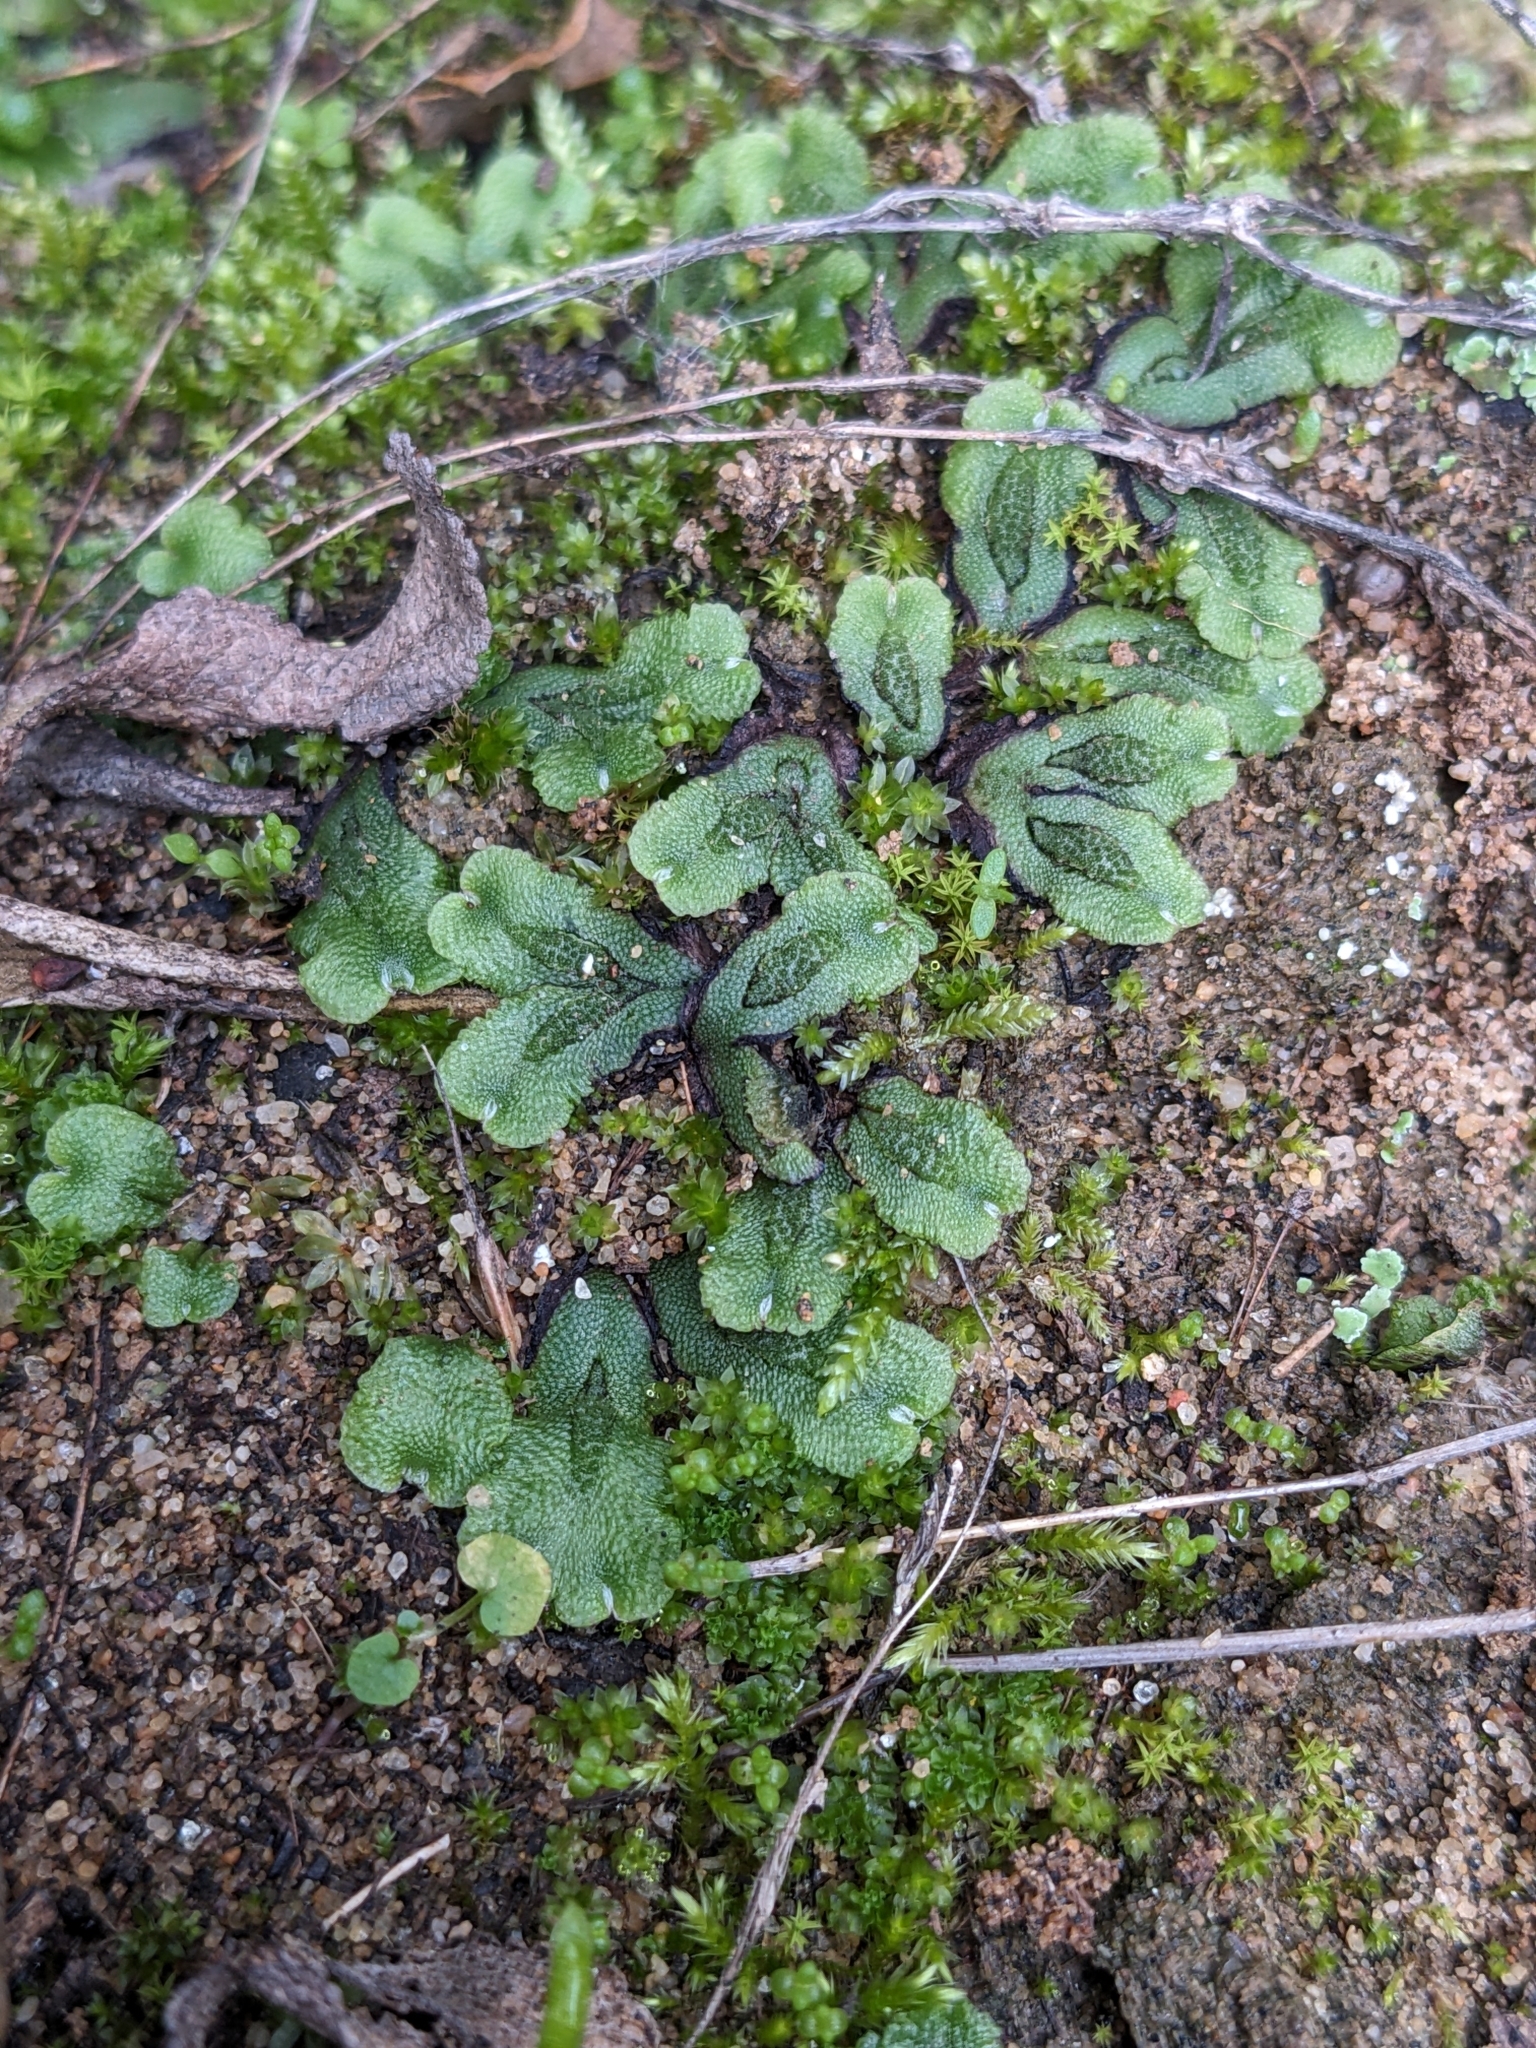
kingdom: Plantae
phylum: Marchantiophyta
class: Marchantiopsida
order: Marchantiales
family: Aytoniaceae
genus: Asterella
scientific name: Asterella californica
